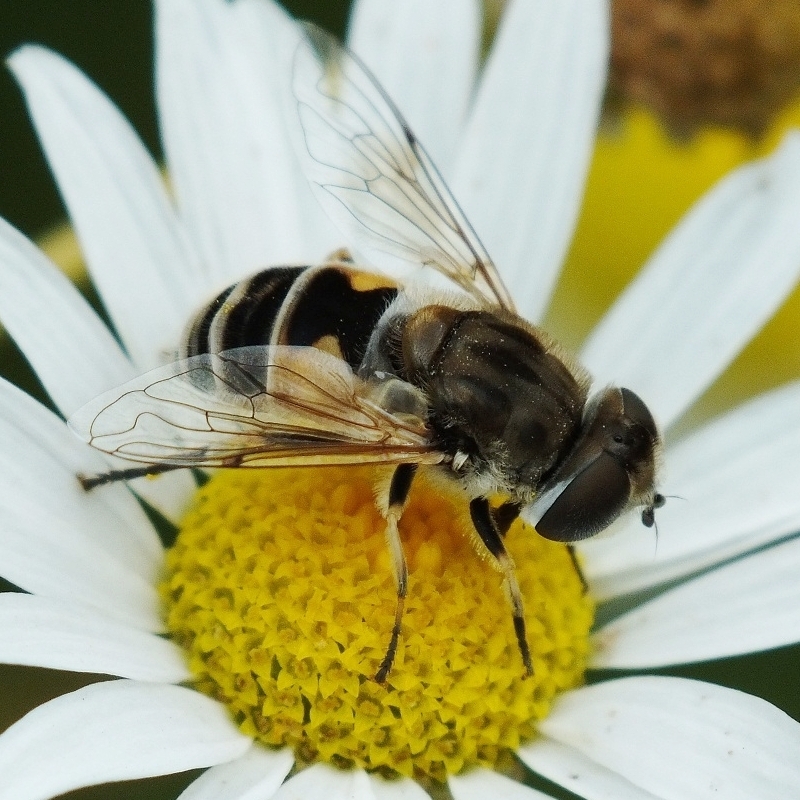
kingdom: Animalia
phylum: Arthropoda
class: Insecta
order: Diptera
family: Syrphidae
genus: Eristalis
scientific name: Eristalis arbustorum
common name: Hover fly
